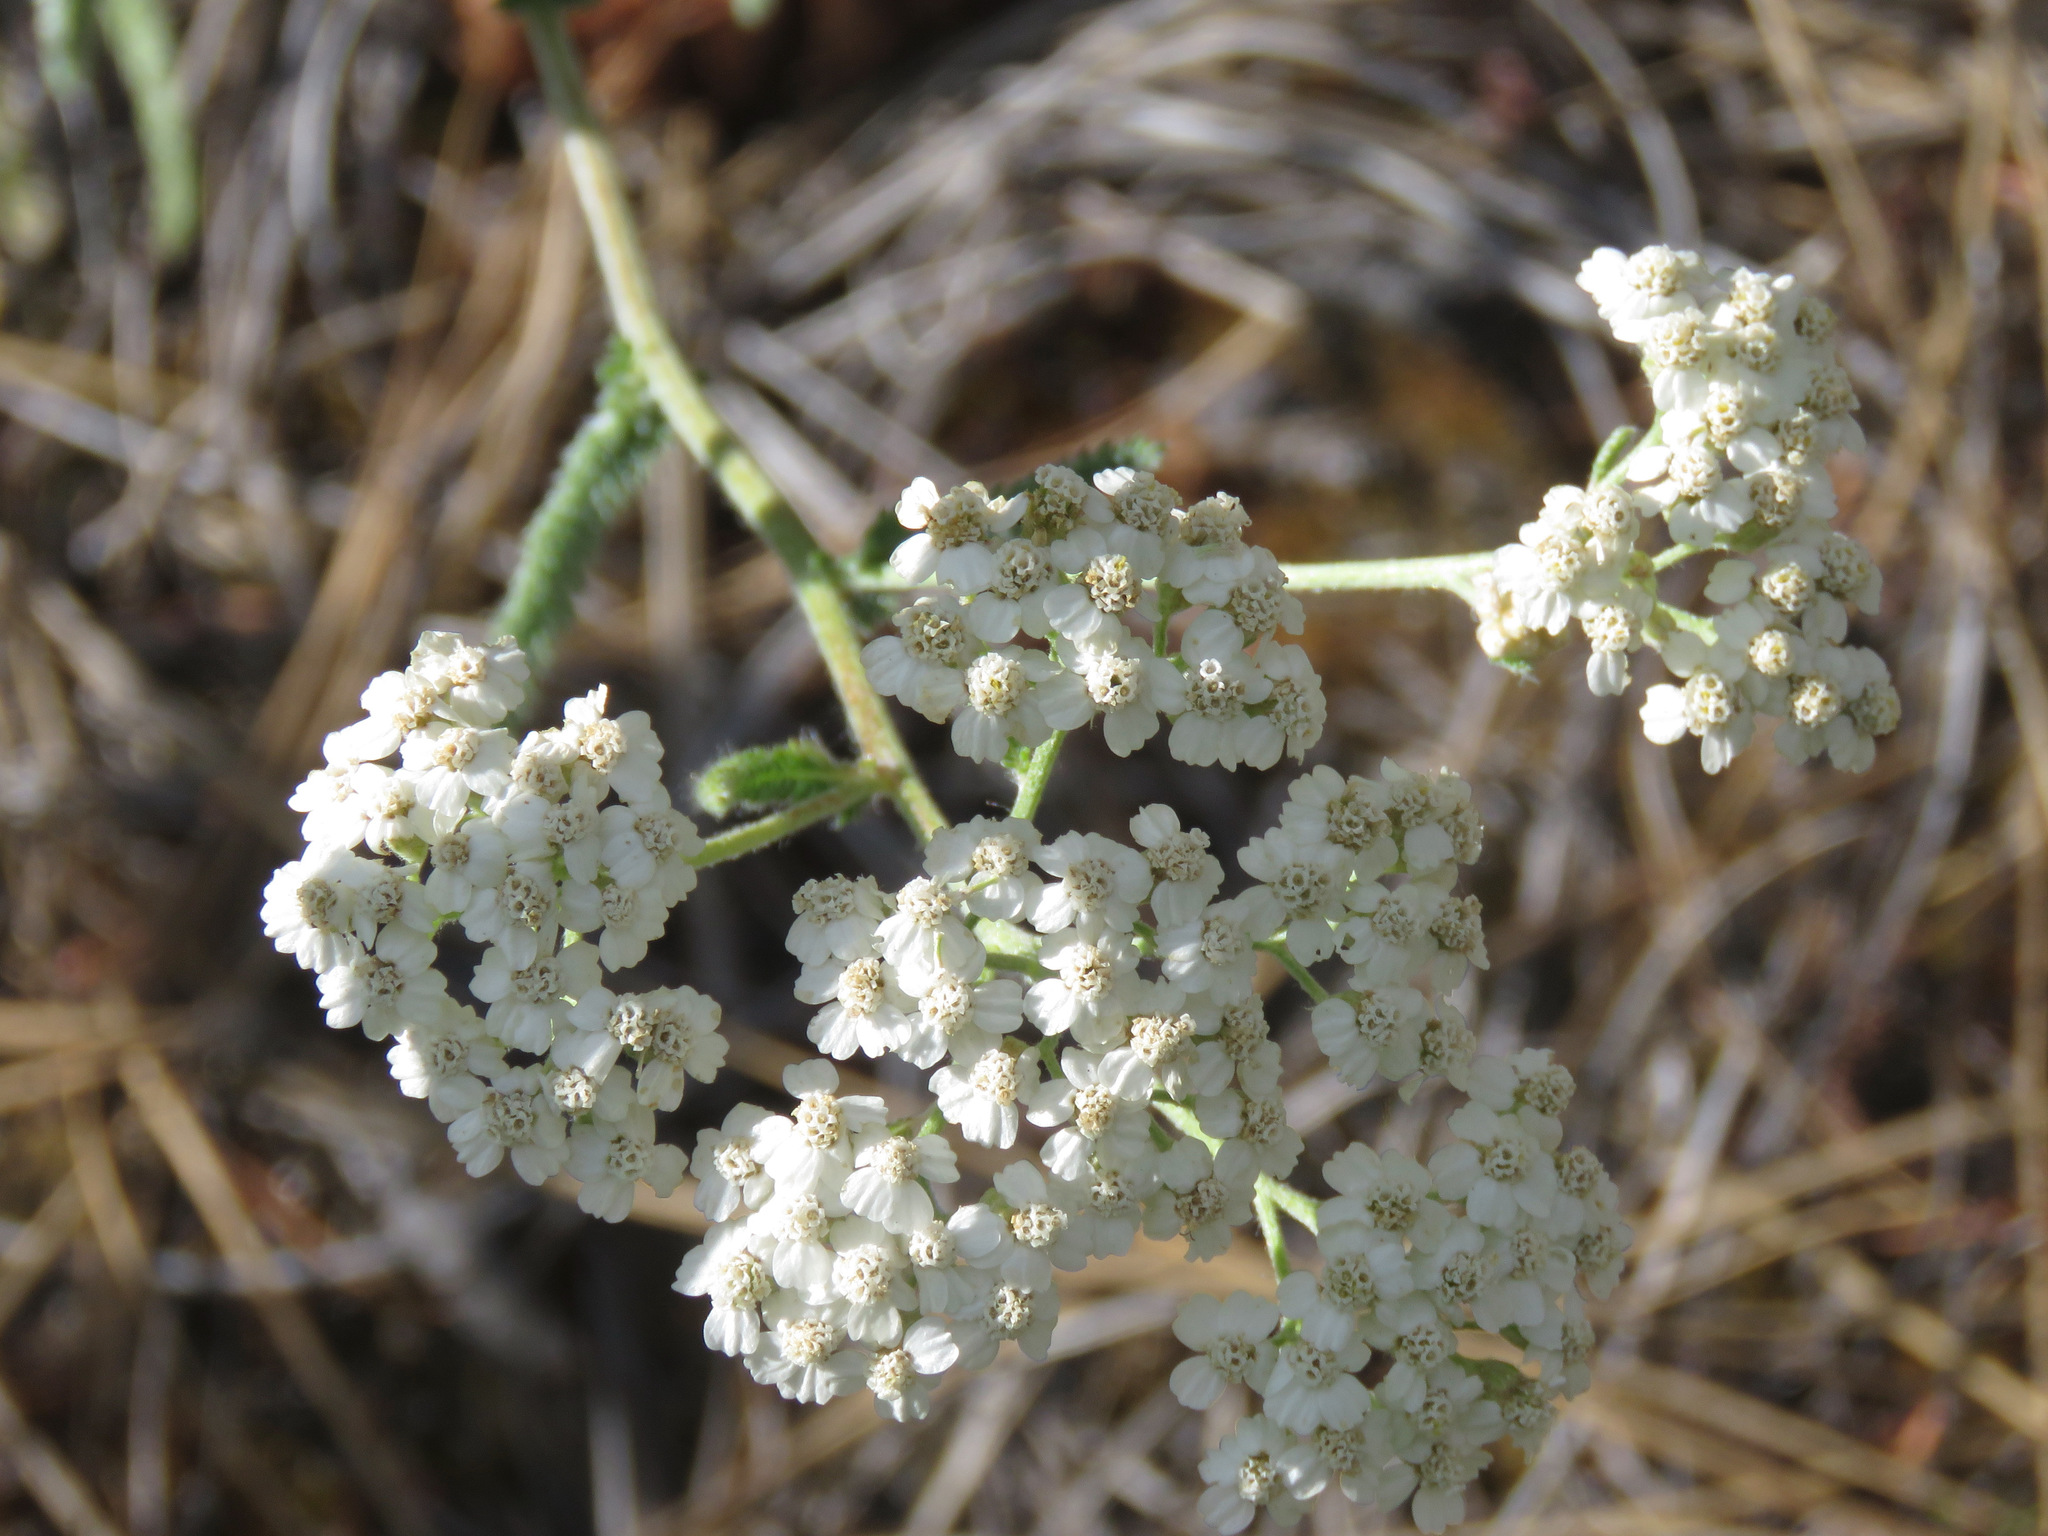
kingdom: Plantae
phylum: Tracheophyta
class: Magnoliopsida
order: Asterales
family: Asteraceae
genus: Achillea
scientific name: Achillea millefolium
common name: Yarrow
